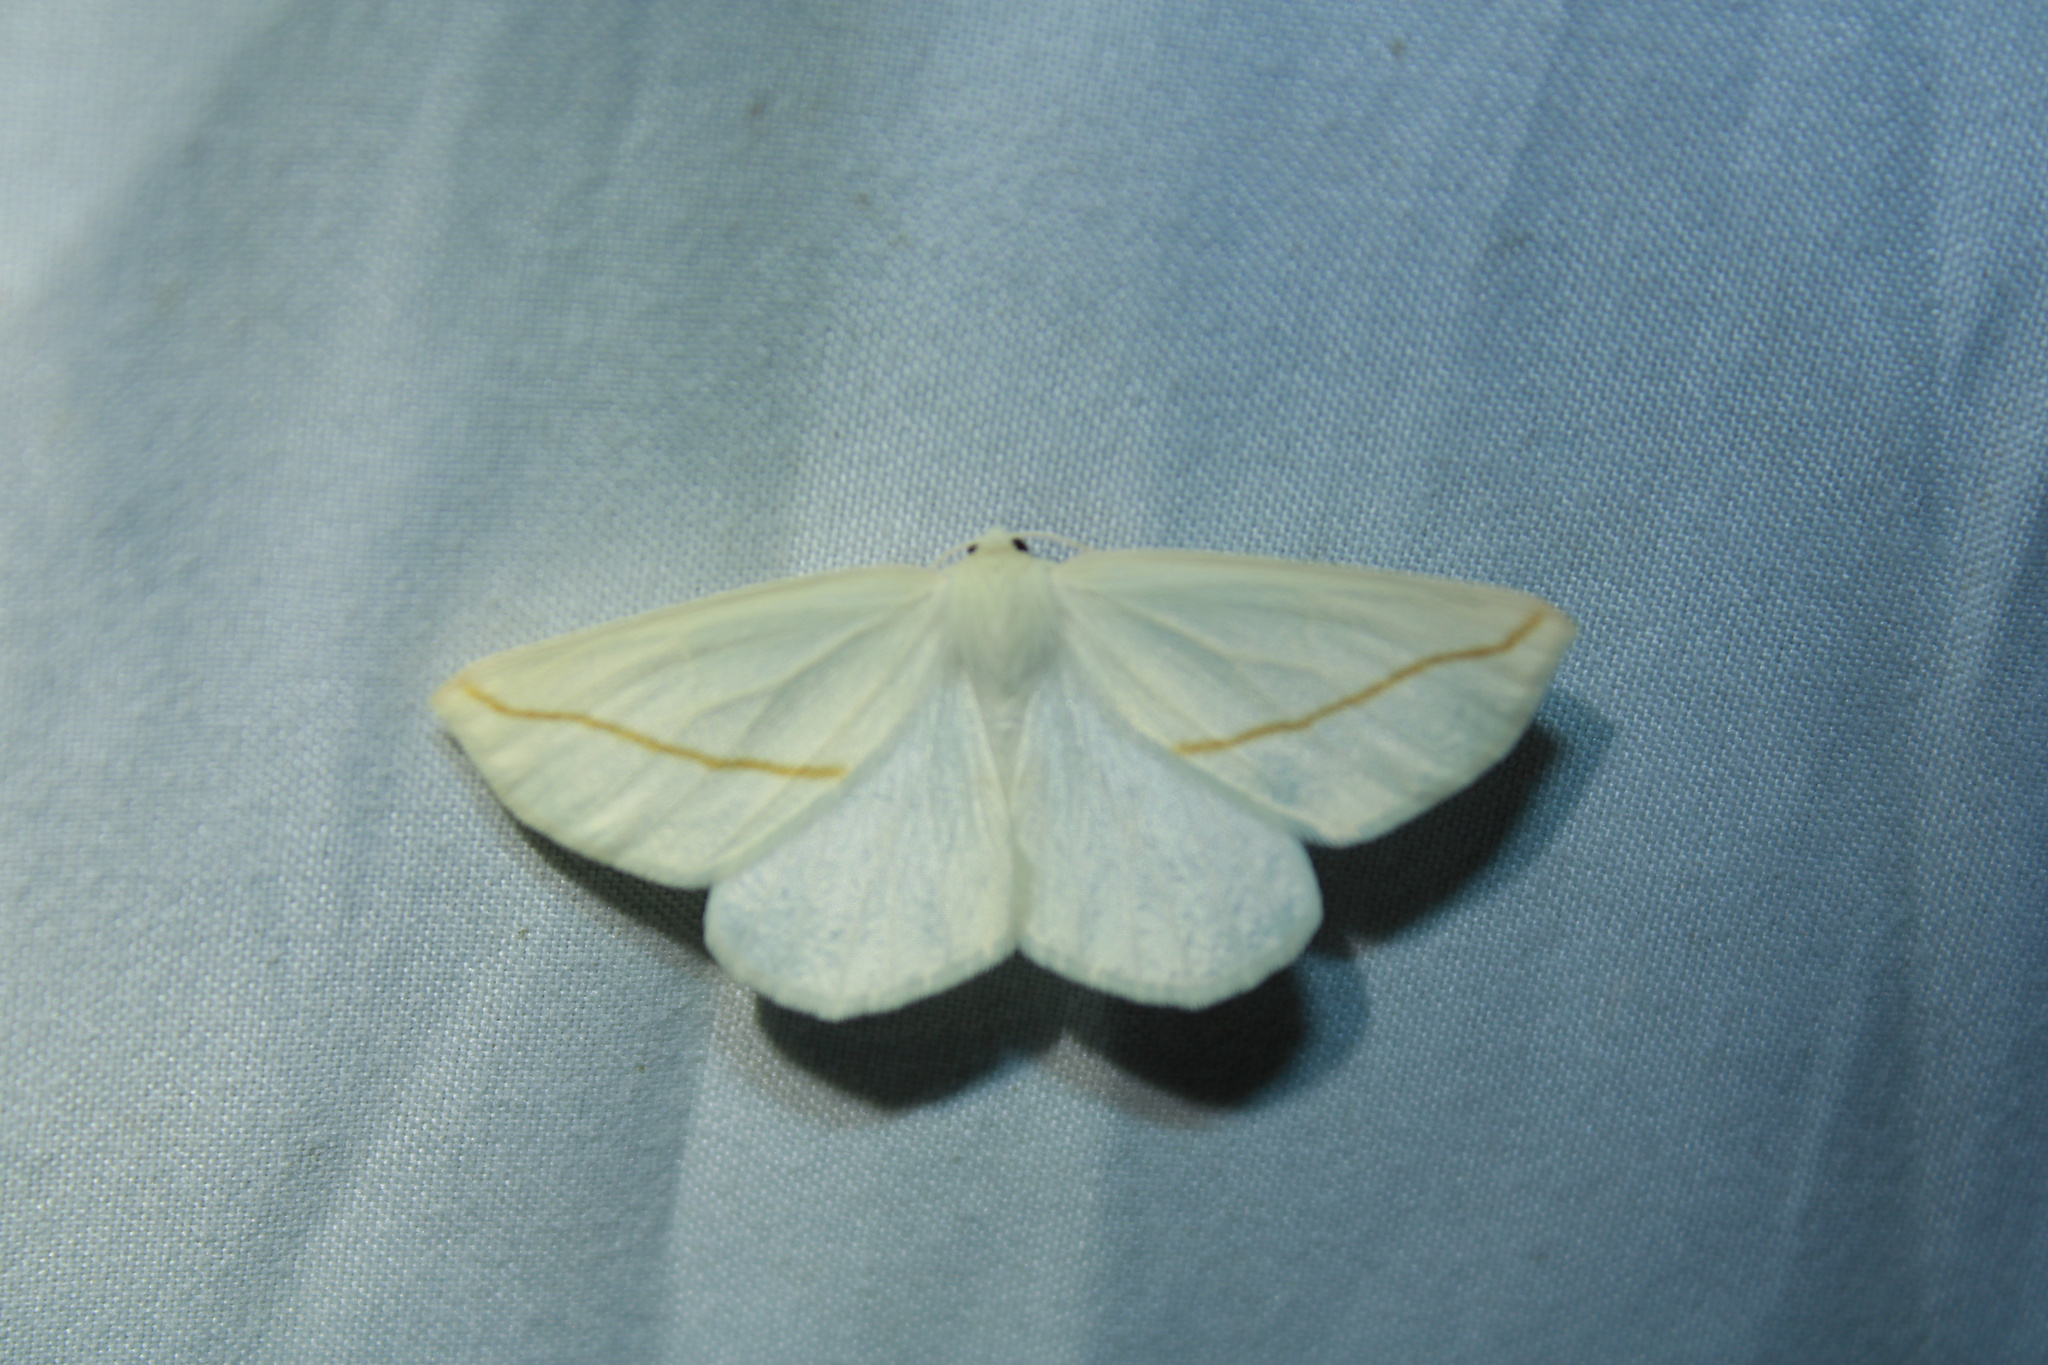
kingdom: Animalia
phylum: Arthropoda
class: Insecta
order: Lepidoptera
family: Geometridae
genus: Tetracis
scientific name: Tetracis cachexiata
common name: White slant-line
